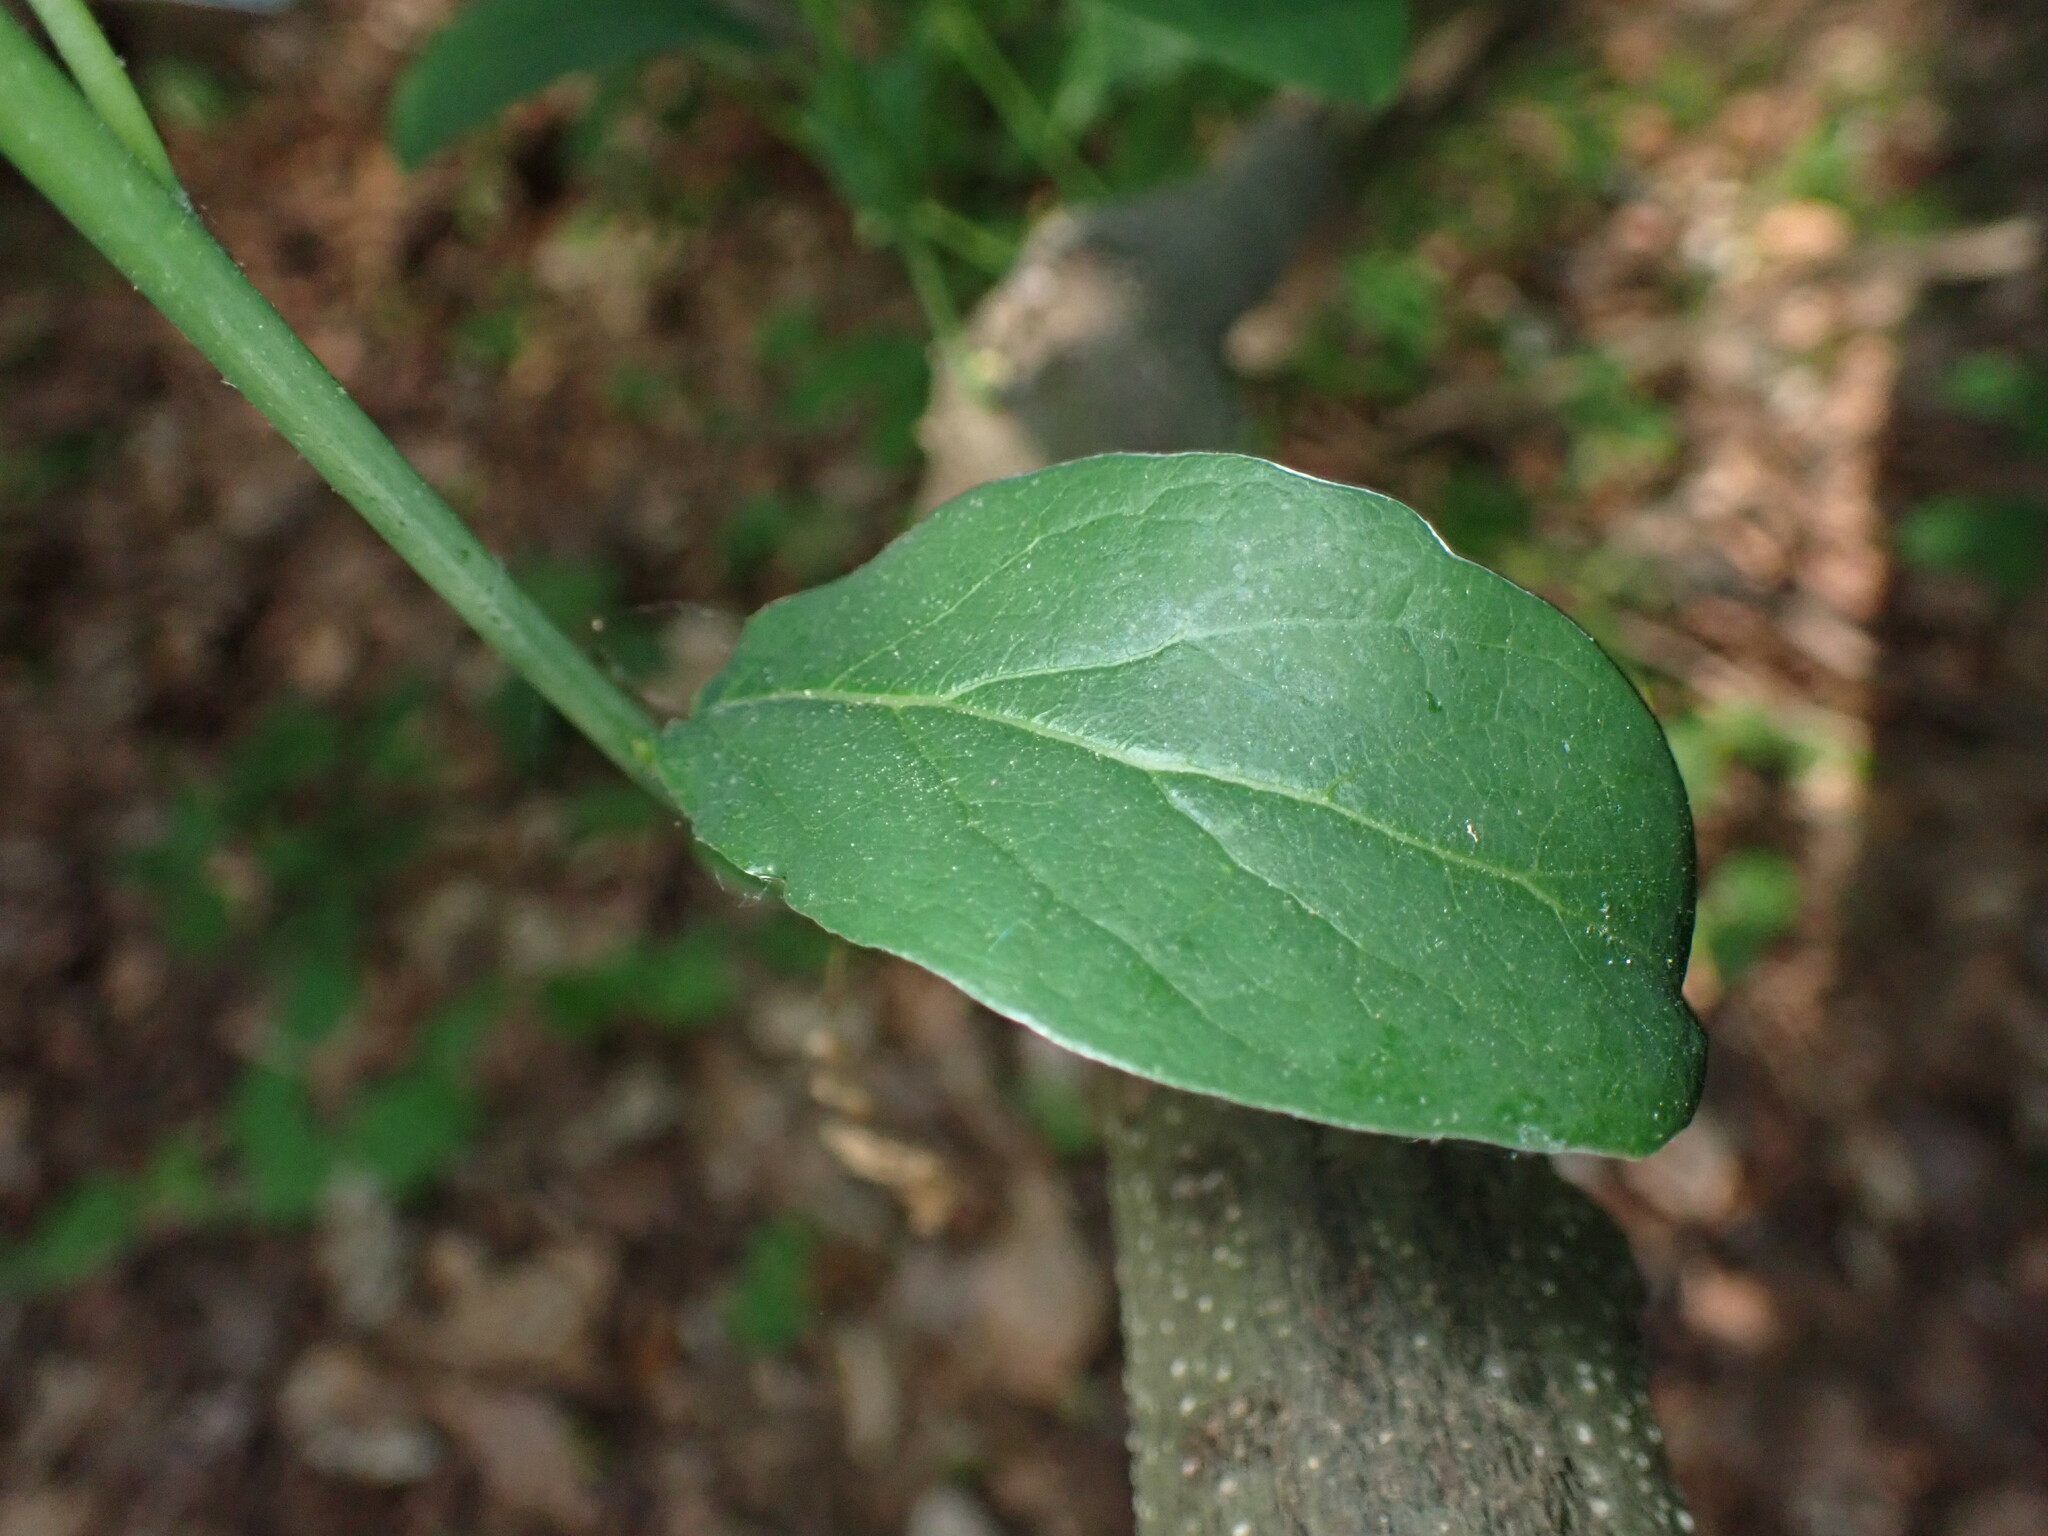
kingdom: Plantae
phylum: Tracheophyta
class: Magnoliopsida
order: Laurales
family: Lauraceae
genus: Lindera
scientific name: Lindera benzoin
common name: Spicebush
